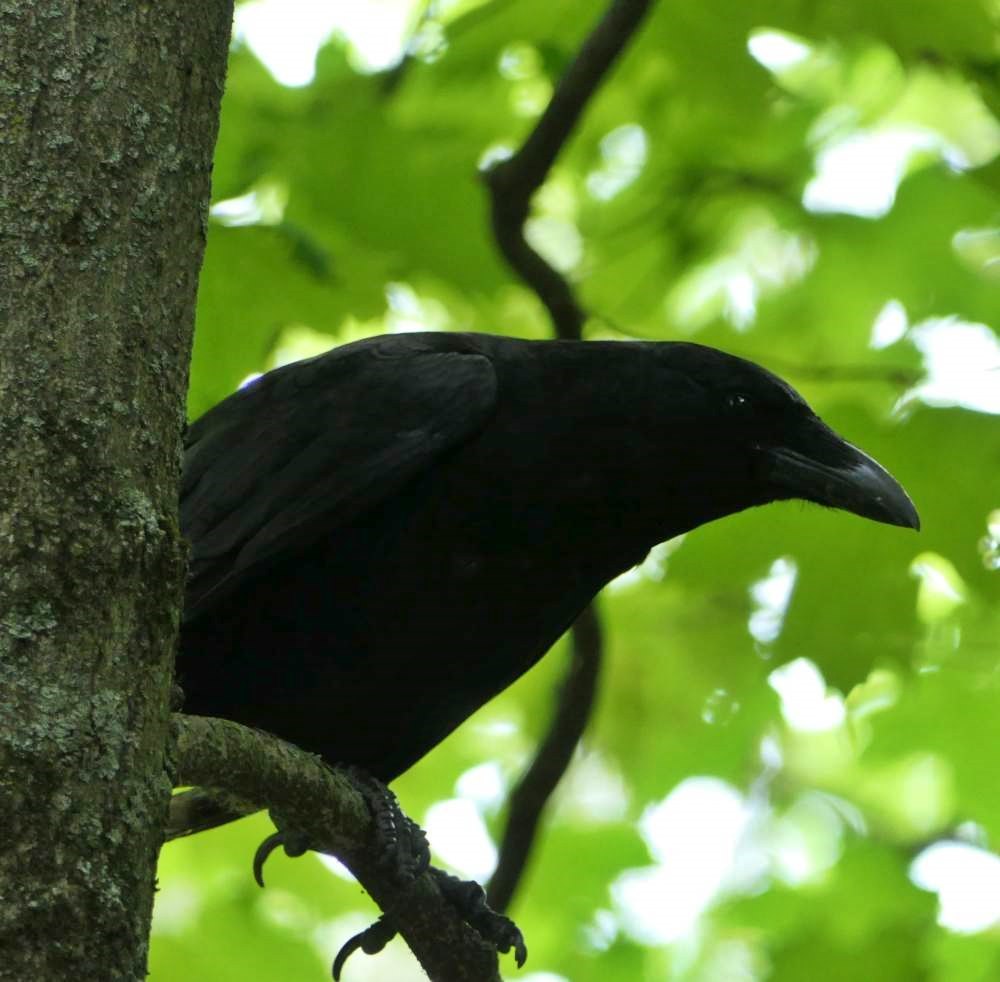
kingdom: Animalia
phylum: Chordata
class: Aves
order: Passeriformes
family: Corvidae
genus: Corvus
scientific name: Corvus brachyrhynchos
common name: American crow
